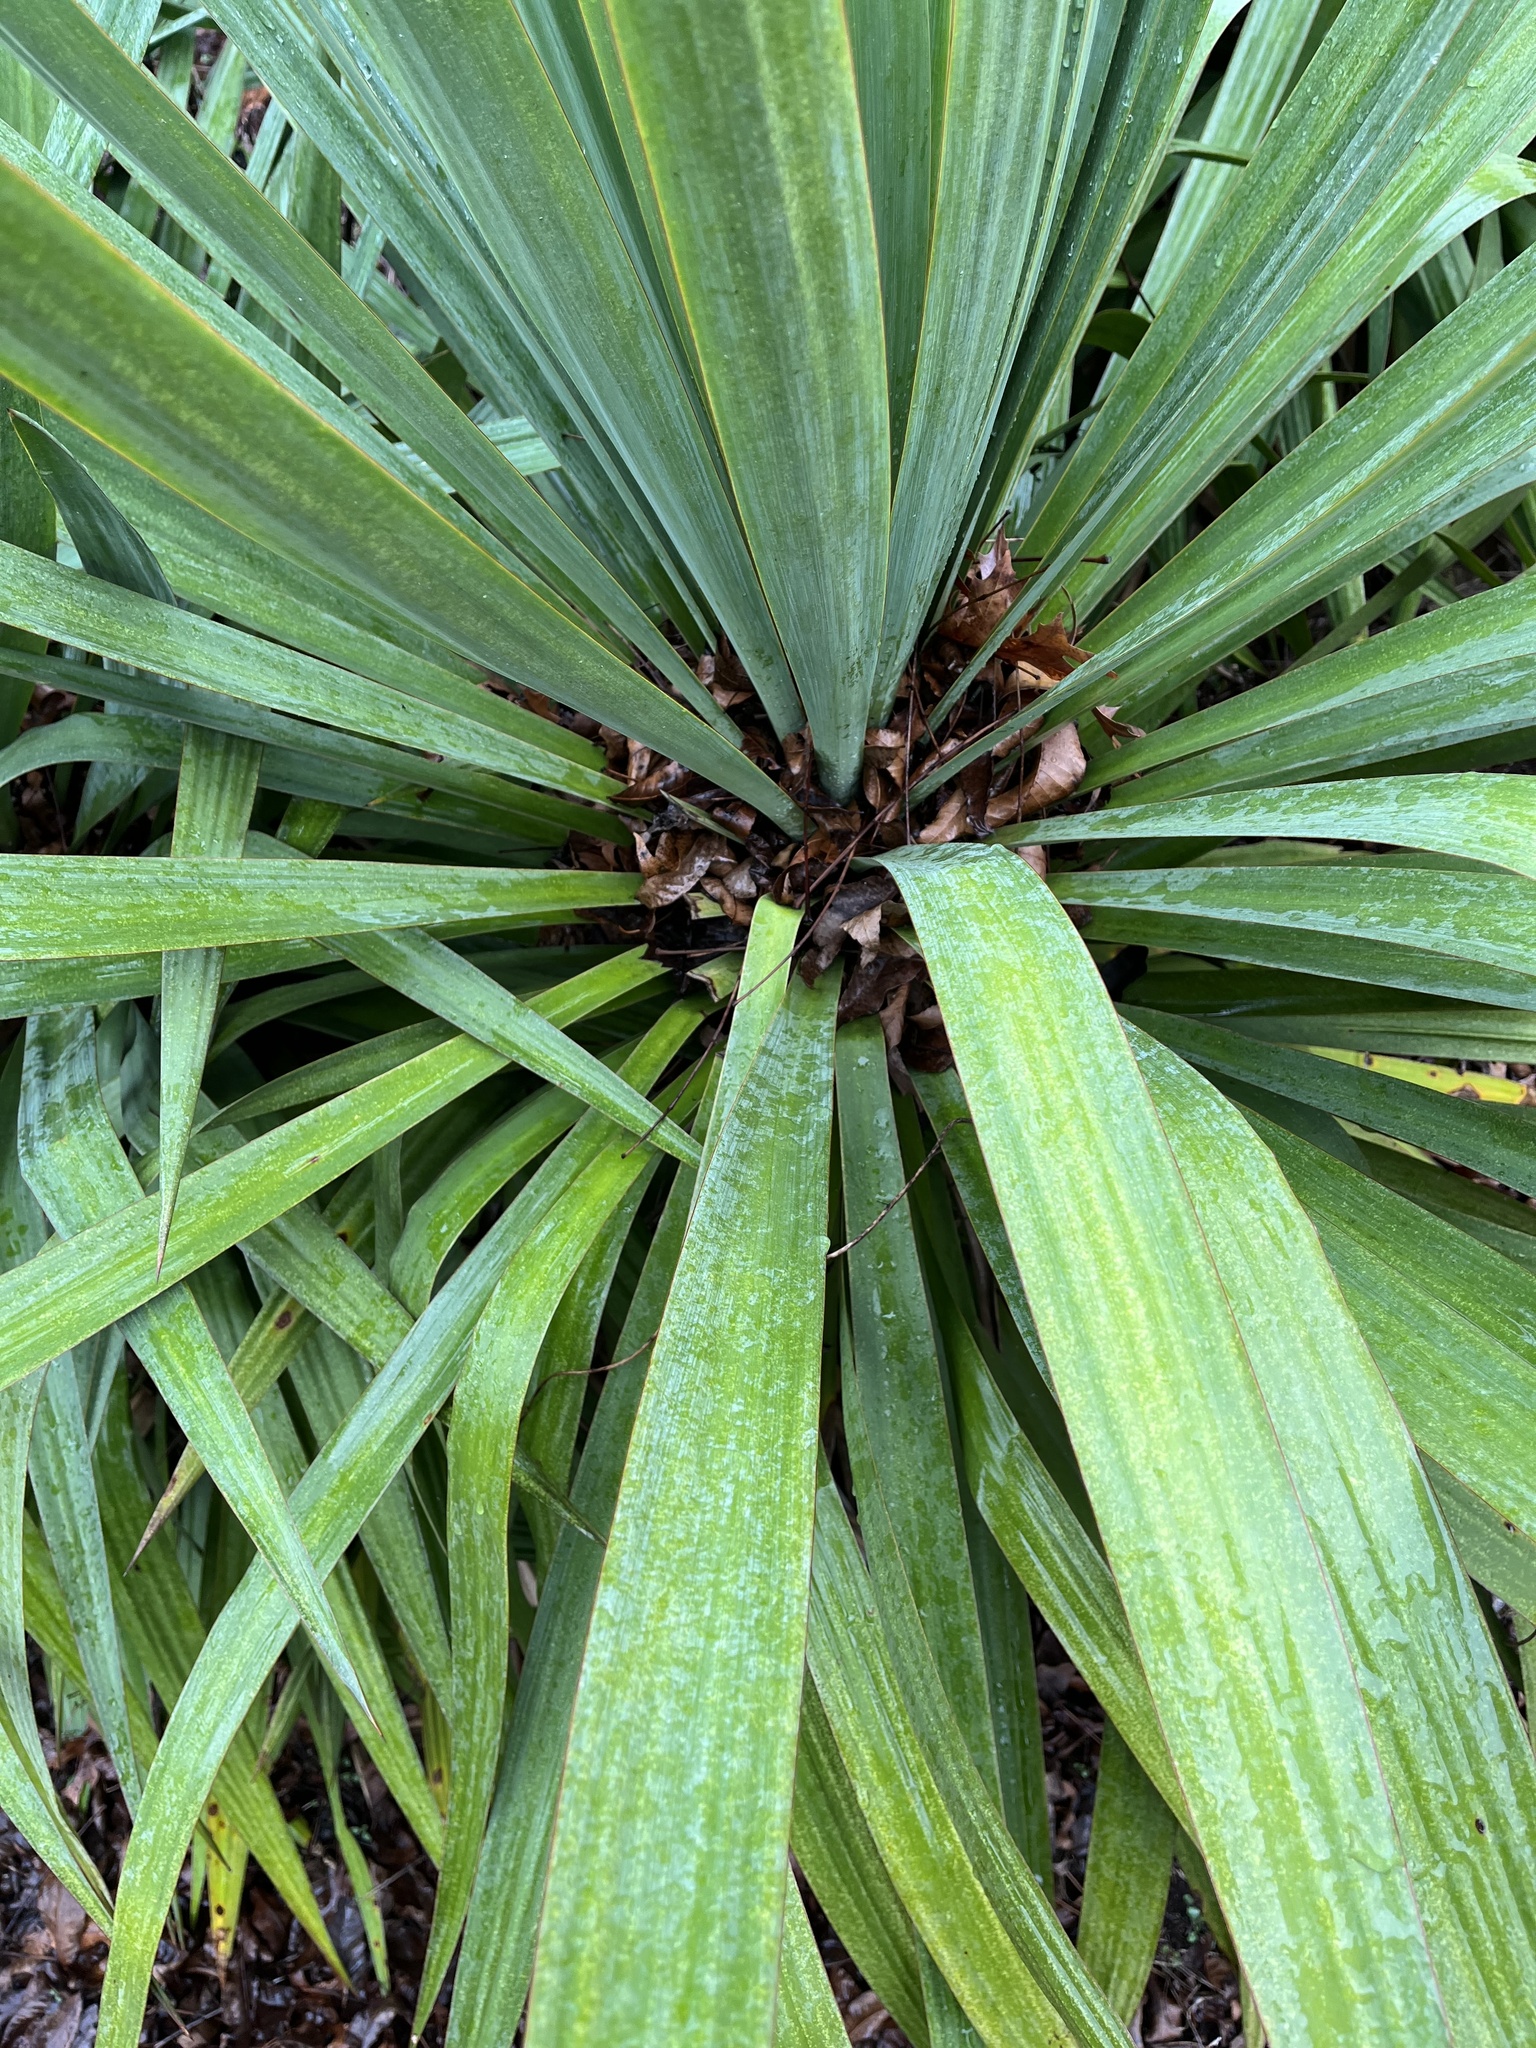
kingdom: Plantae
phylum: Tracheophyta
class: Liliopsida
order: Asparagales
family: Asparagaceae
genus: Yucca
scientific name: Yucca filamentosa
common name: Adam's-needle
